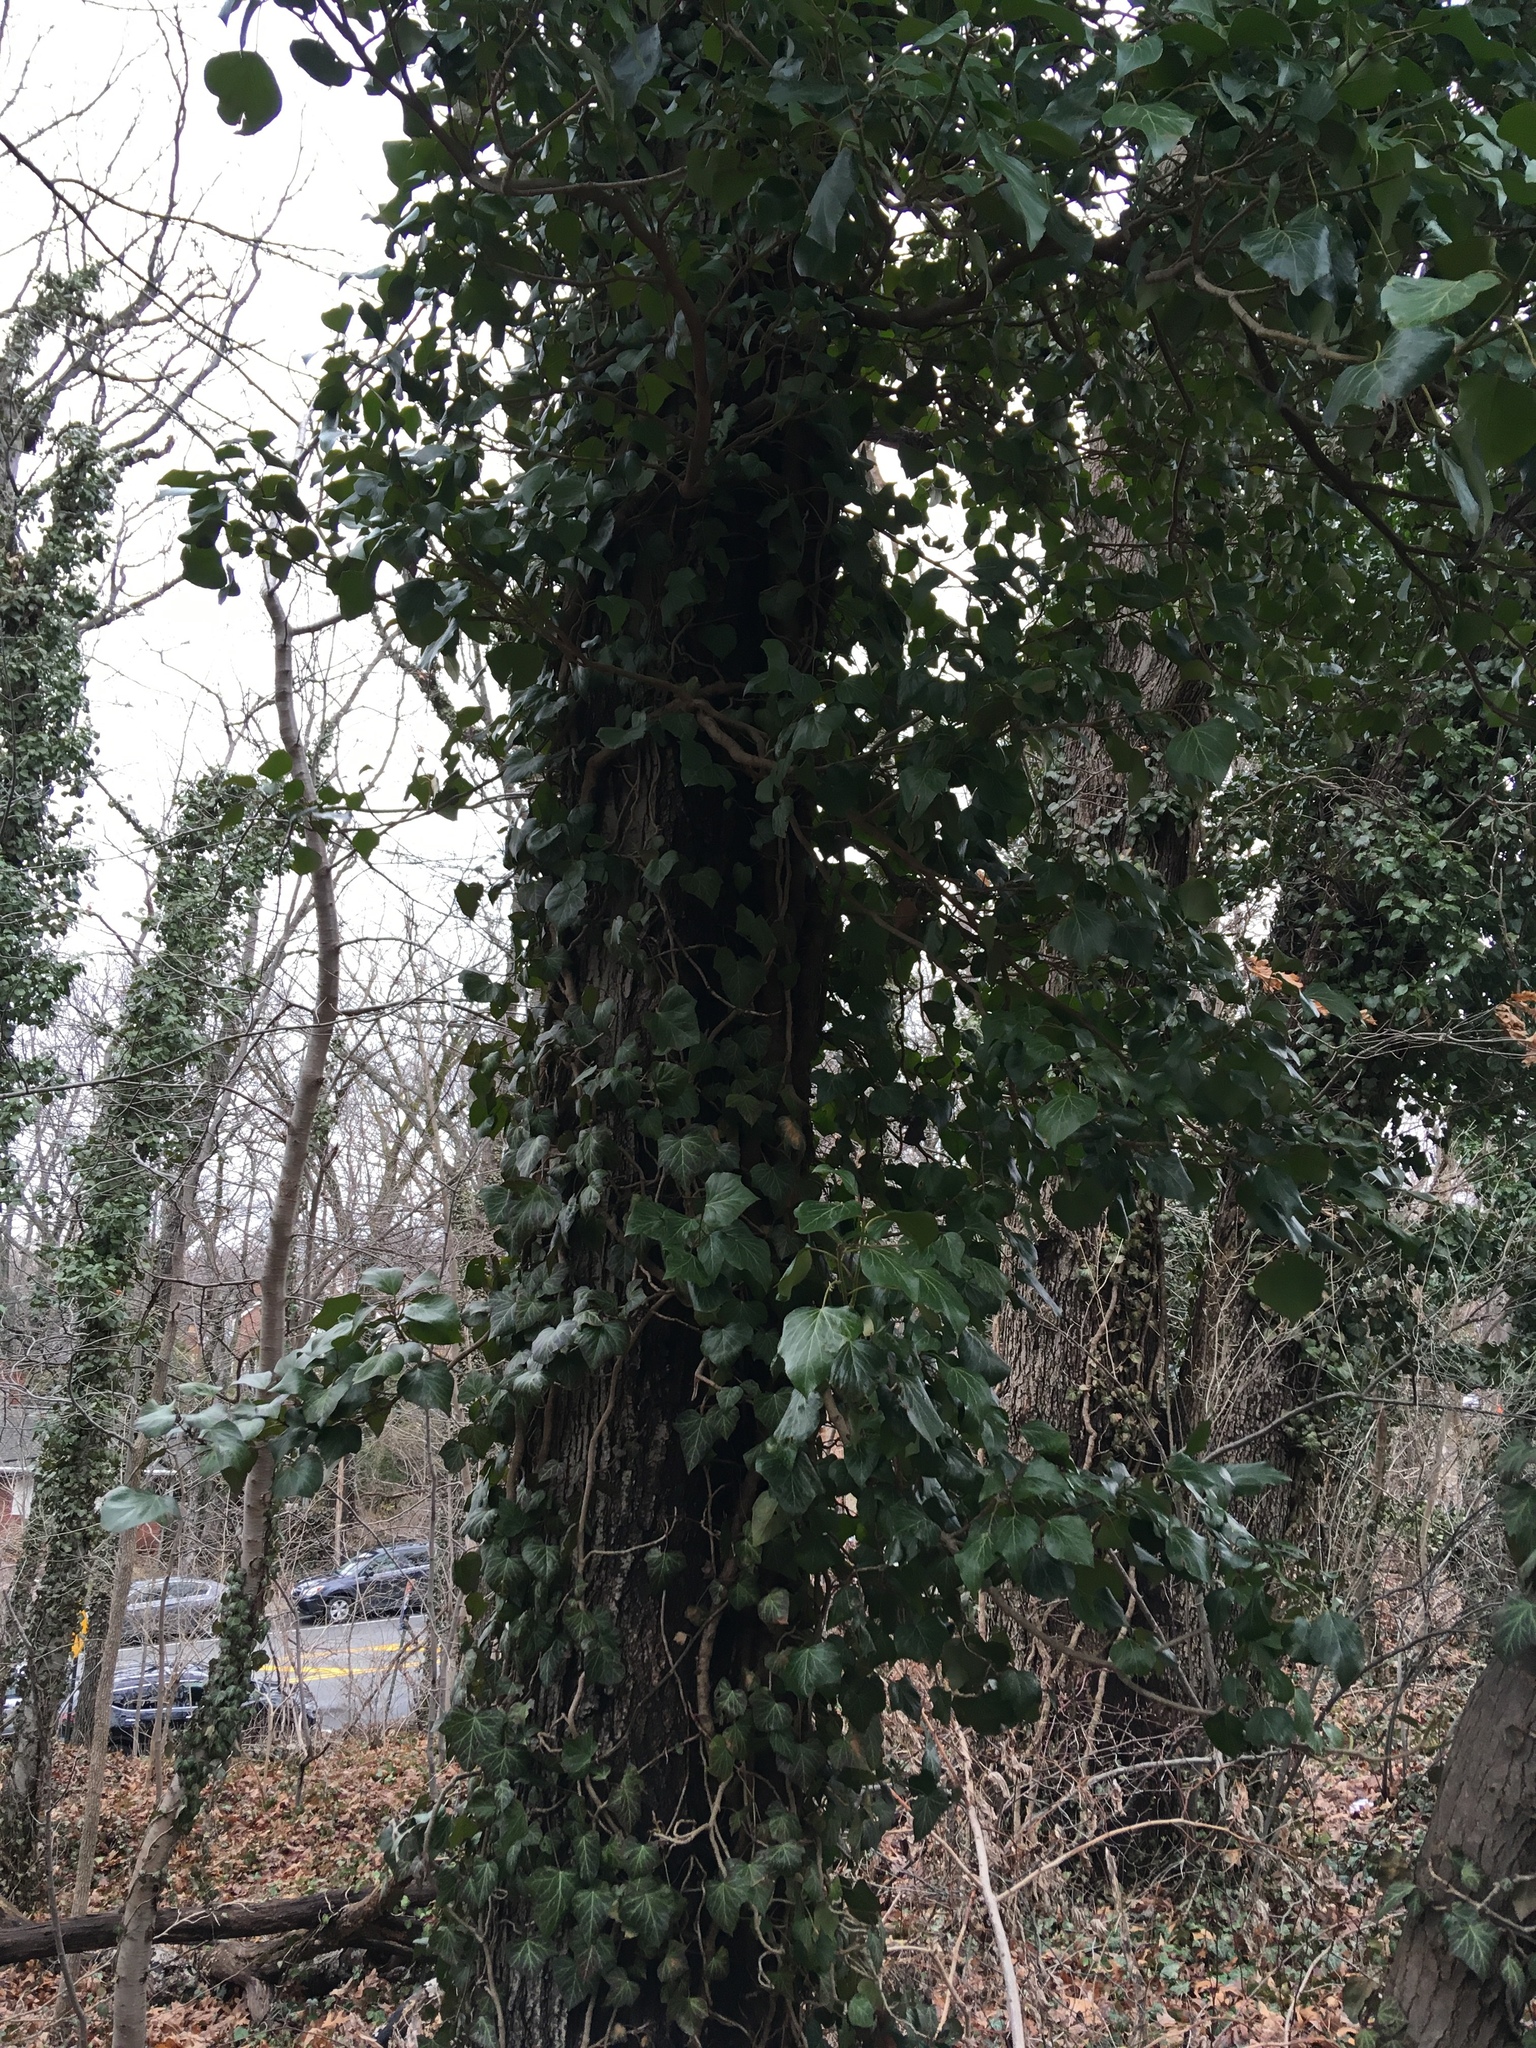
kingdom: Plantae
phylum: Tracheophyta
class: Magnoliopsida
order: Apiales
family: Araliaceae
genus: Hedera
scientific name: Hedera helix
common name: Ivy
